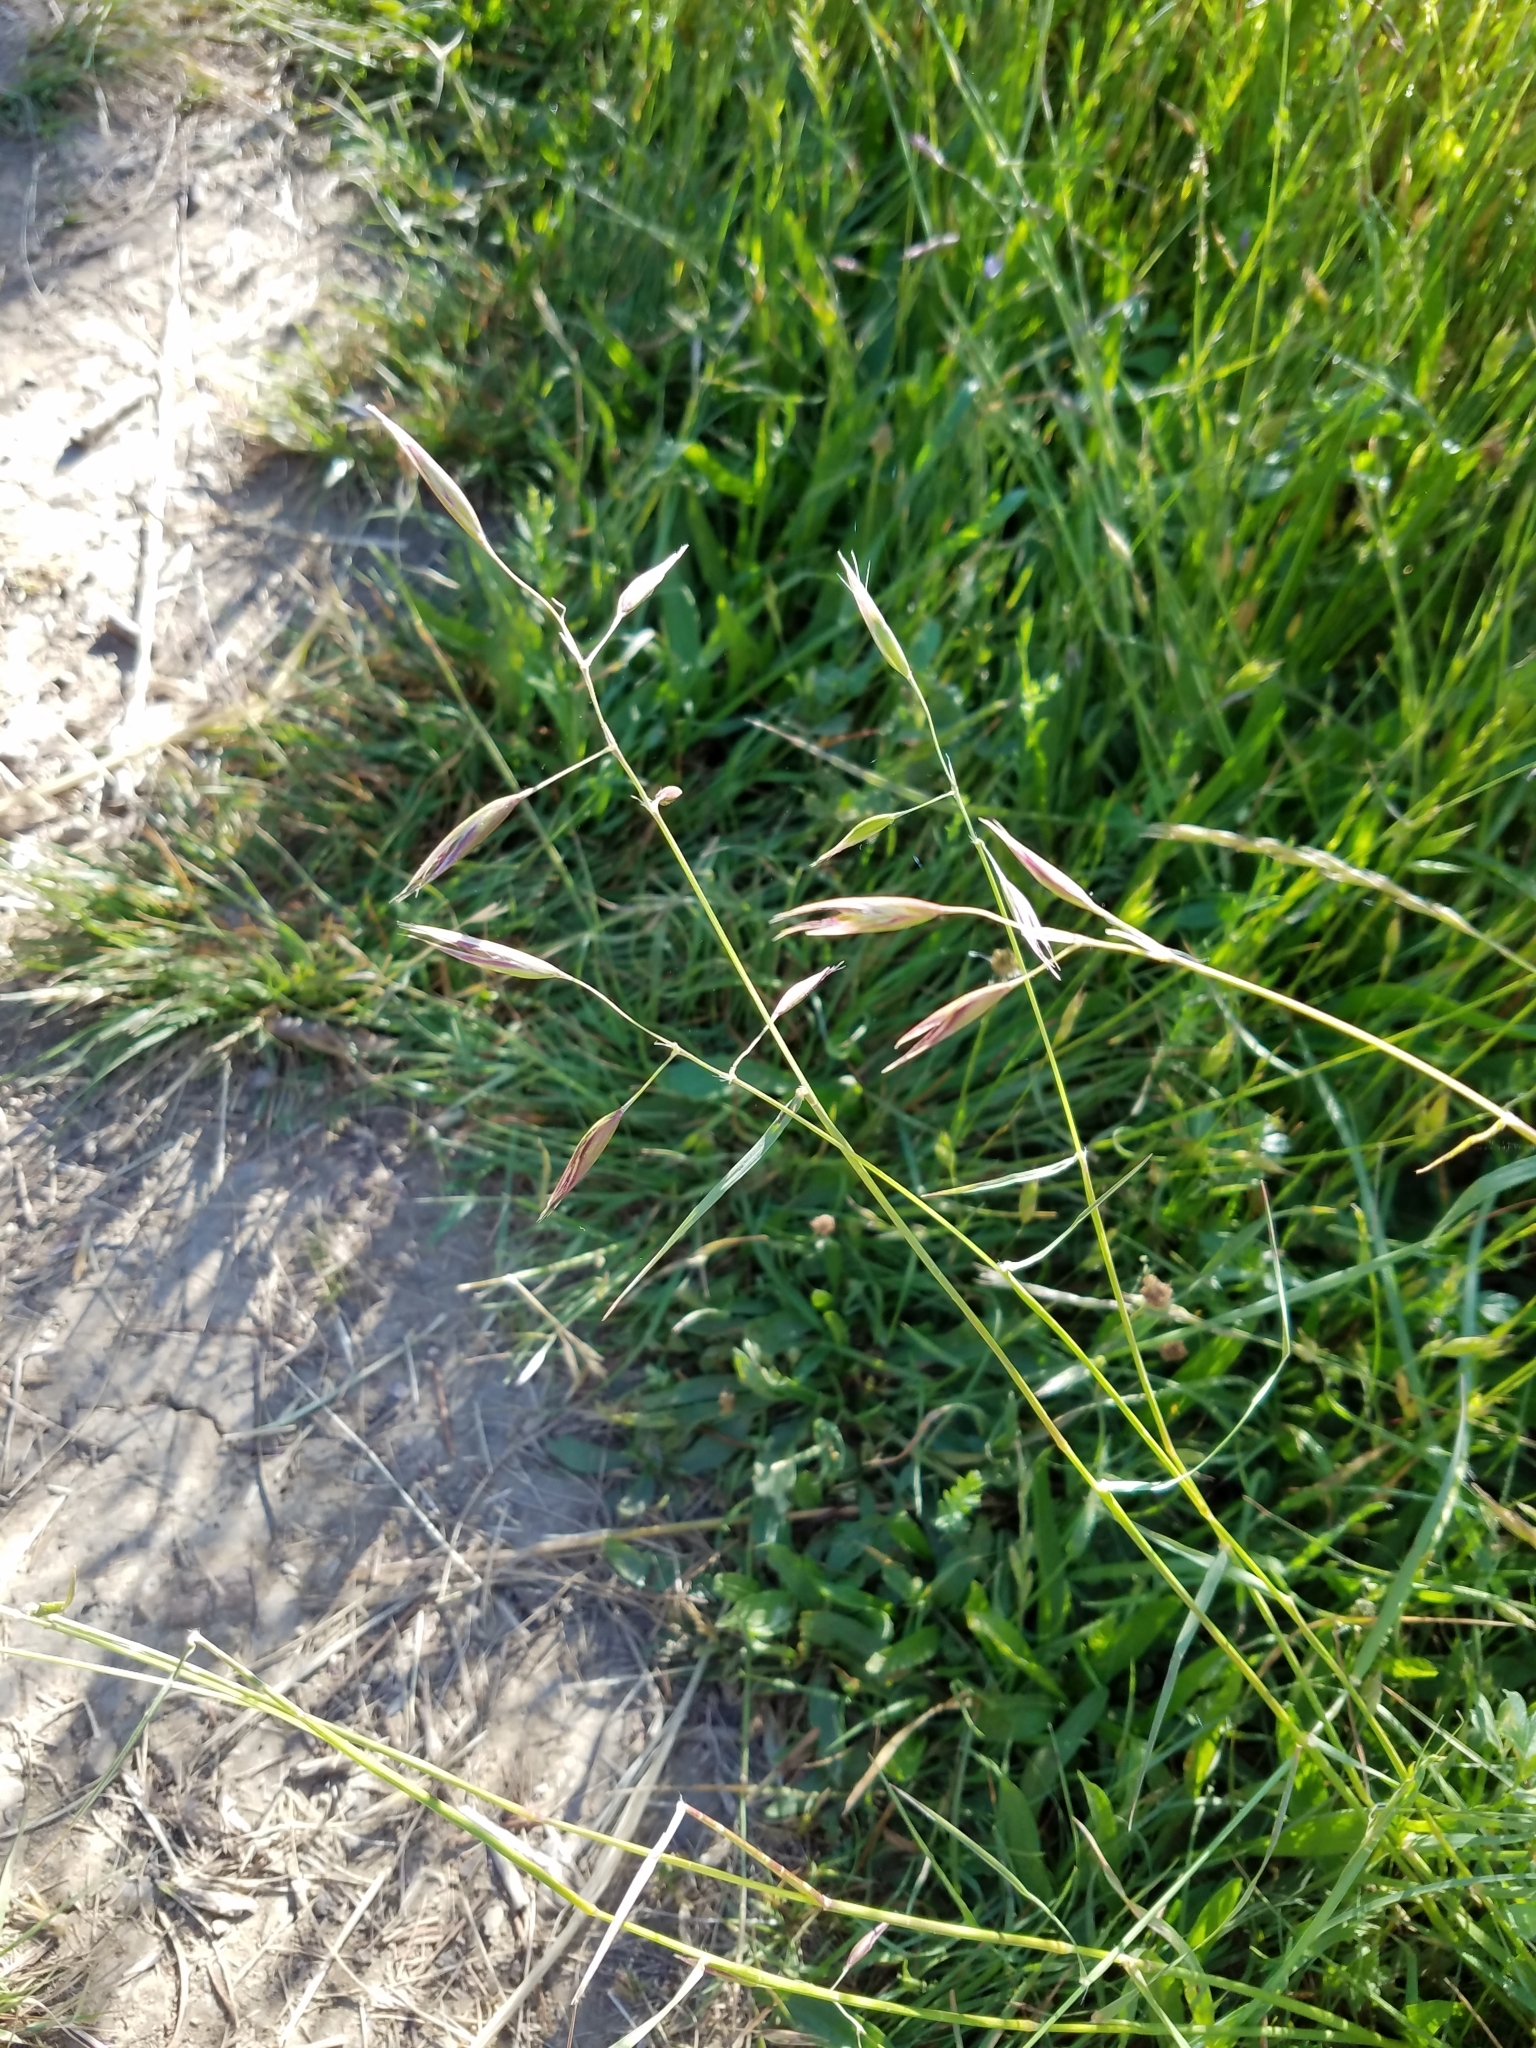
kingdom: Plantae
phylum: Tracheophyta
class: Liliopsida
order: Poales
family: Poaceae
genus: Danthonia
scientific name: Danthonia californica
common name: California oat grass
